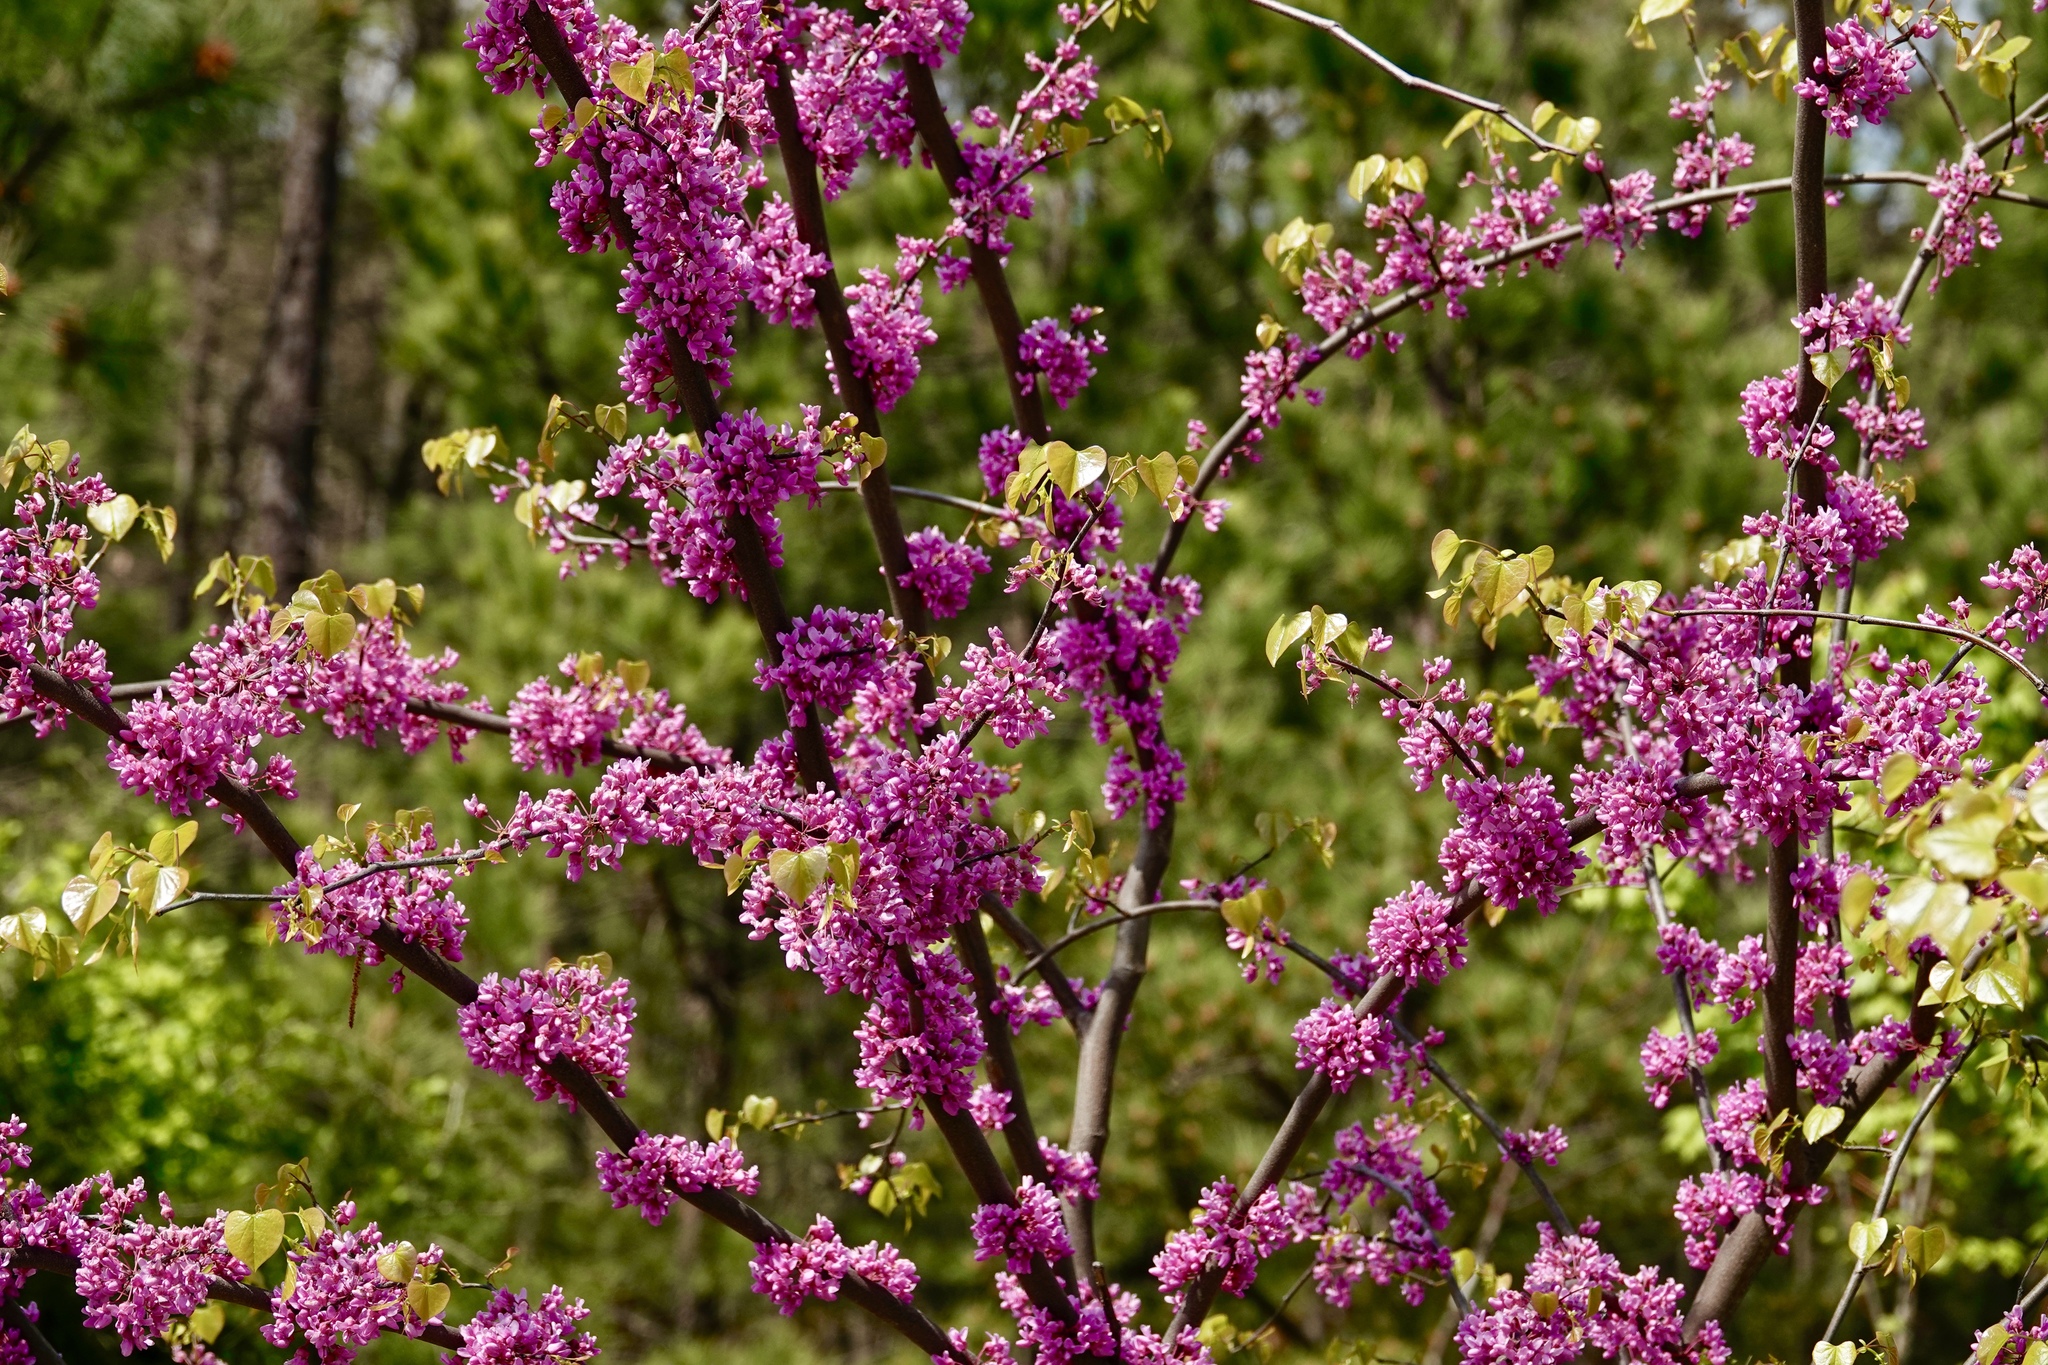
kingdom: Plantae
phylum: Tracheophyta
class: Magnoliopsida
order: Fabales
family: Fabaceae
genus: Cercis
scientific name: Cercis canadensis
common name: Eastern redbud
